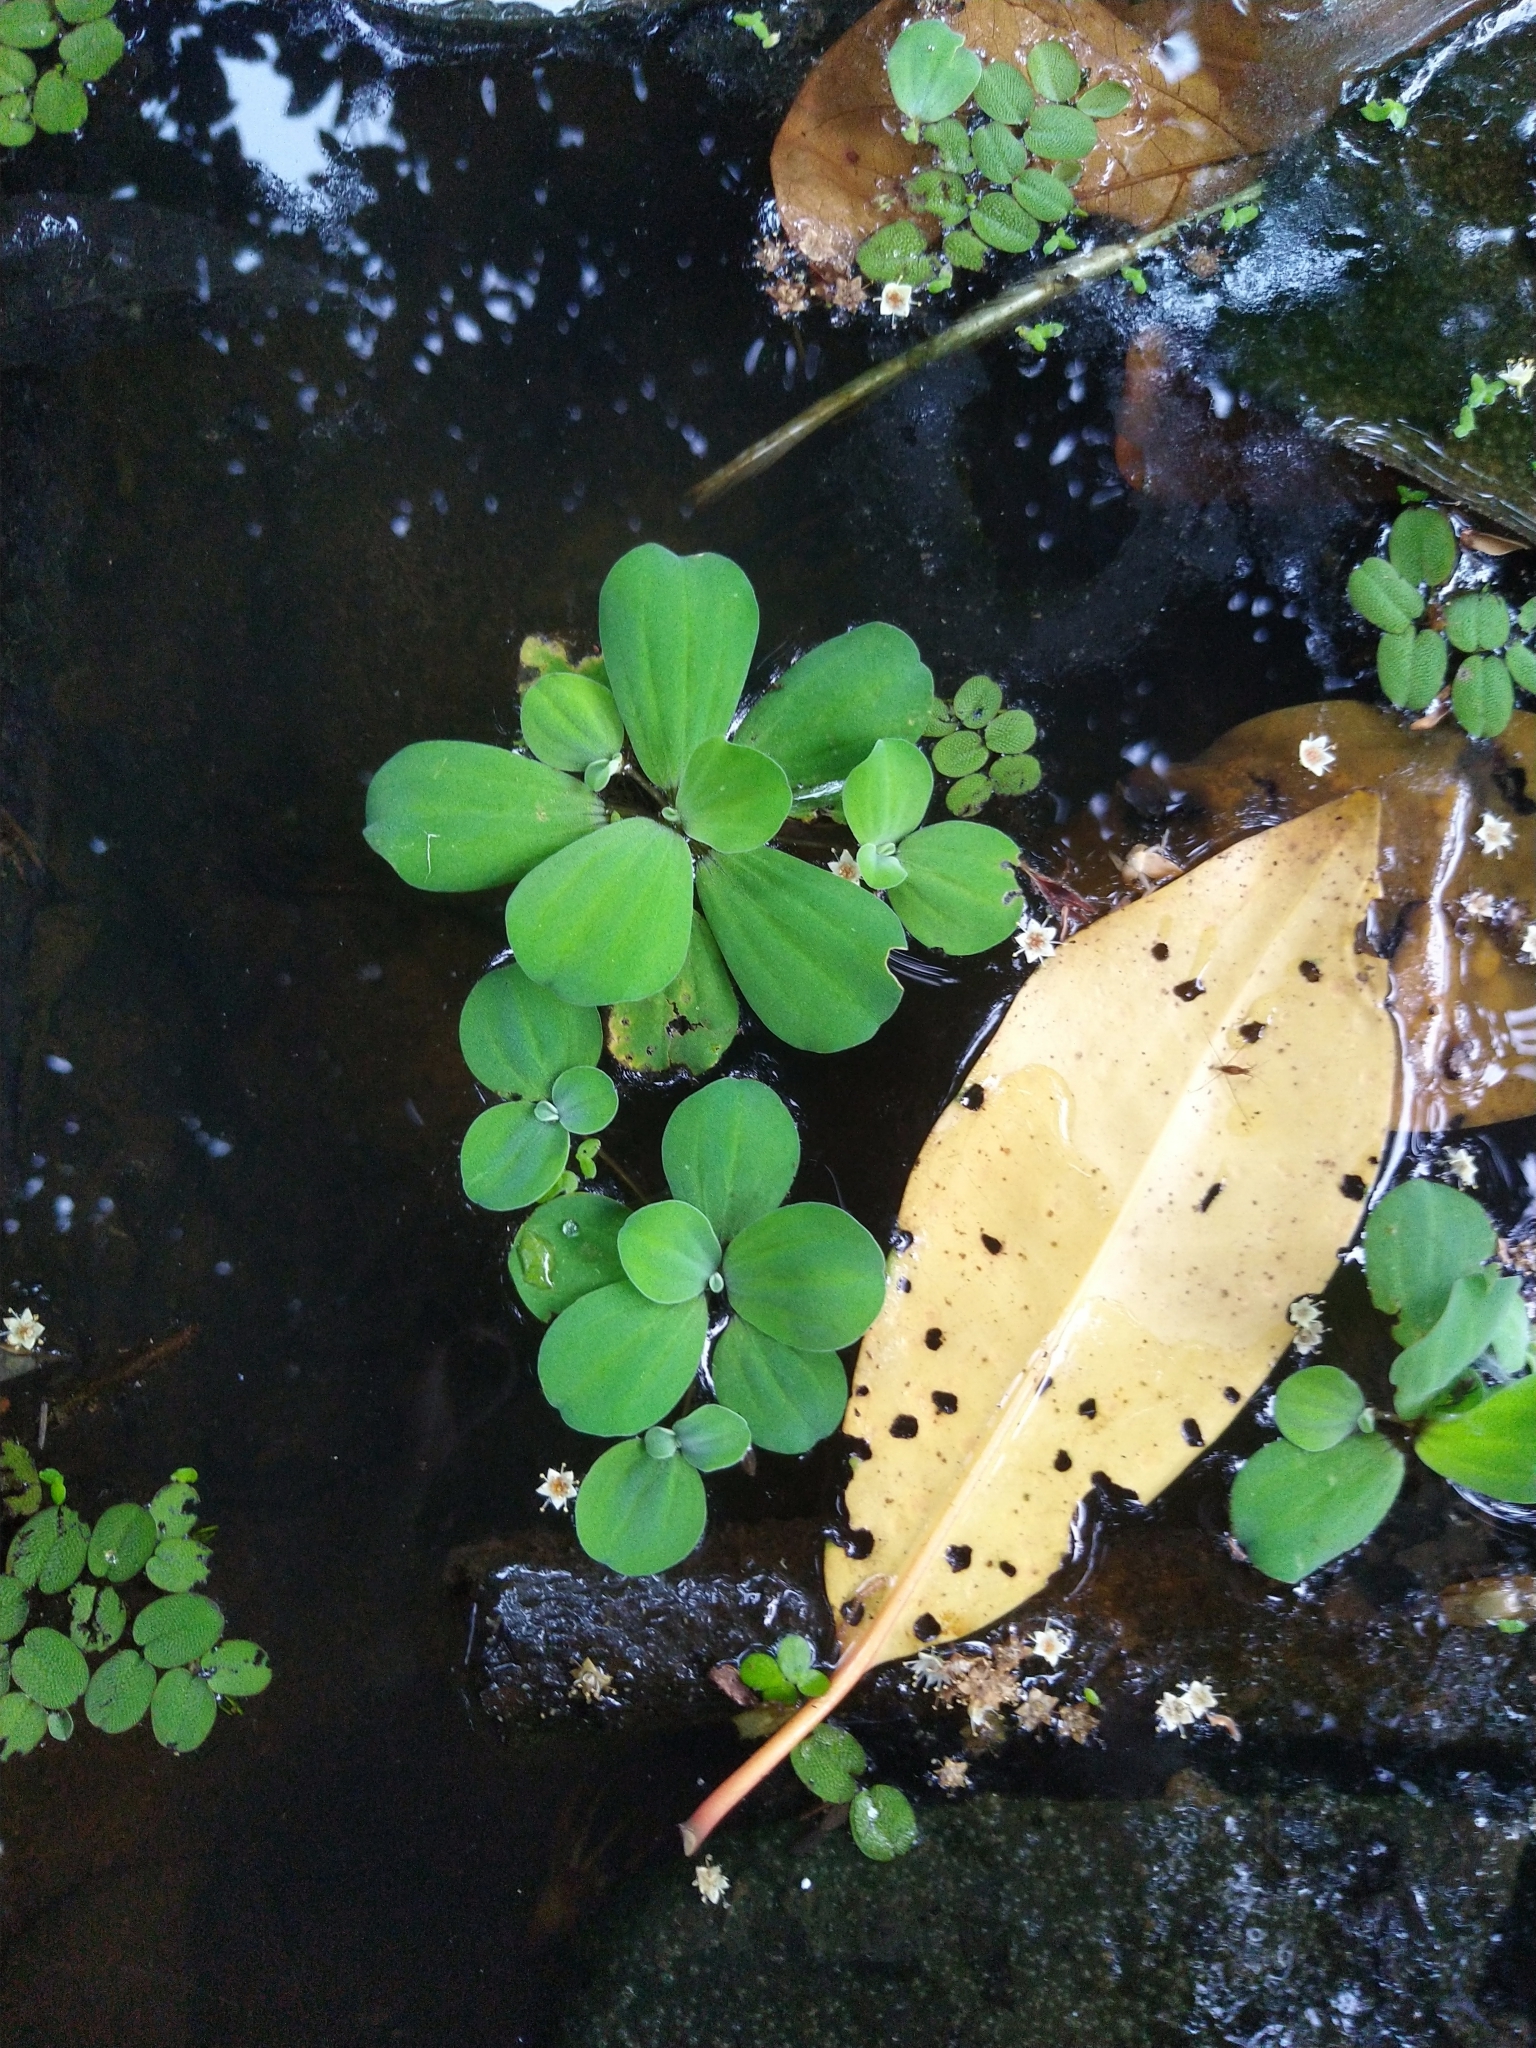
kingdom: Plantae
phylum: Tracheophyta
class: Liliopsida
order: Alismatales
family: Araceae
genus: Pistia
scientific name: Pistia stratiotes
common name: Water lettuce
